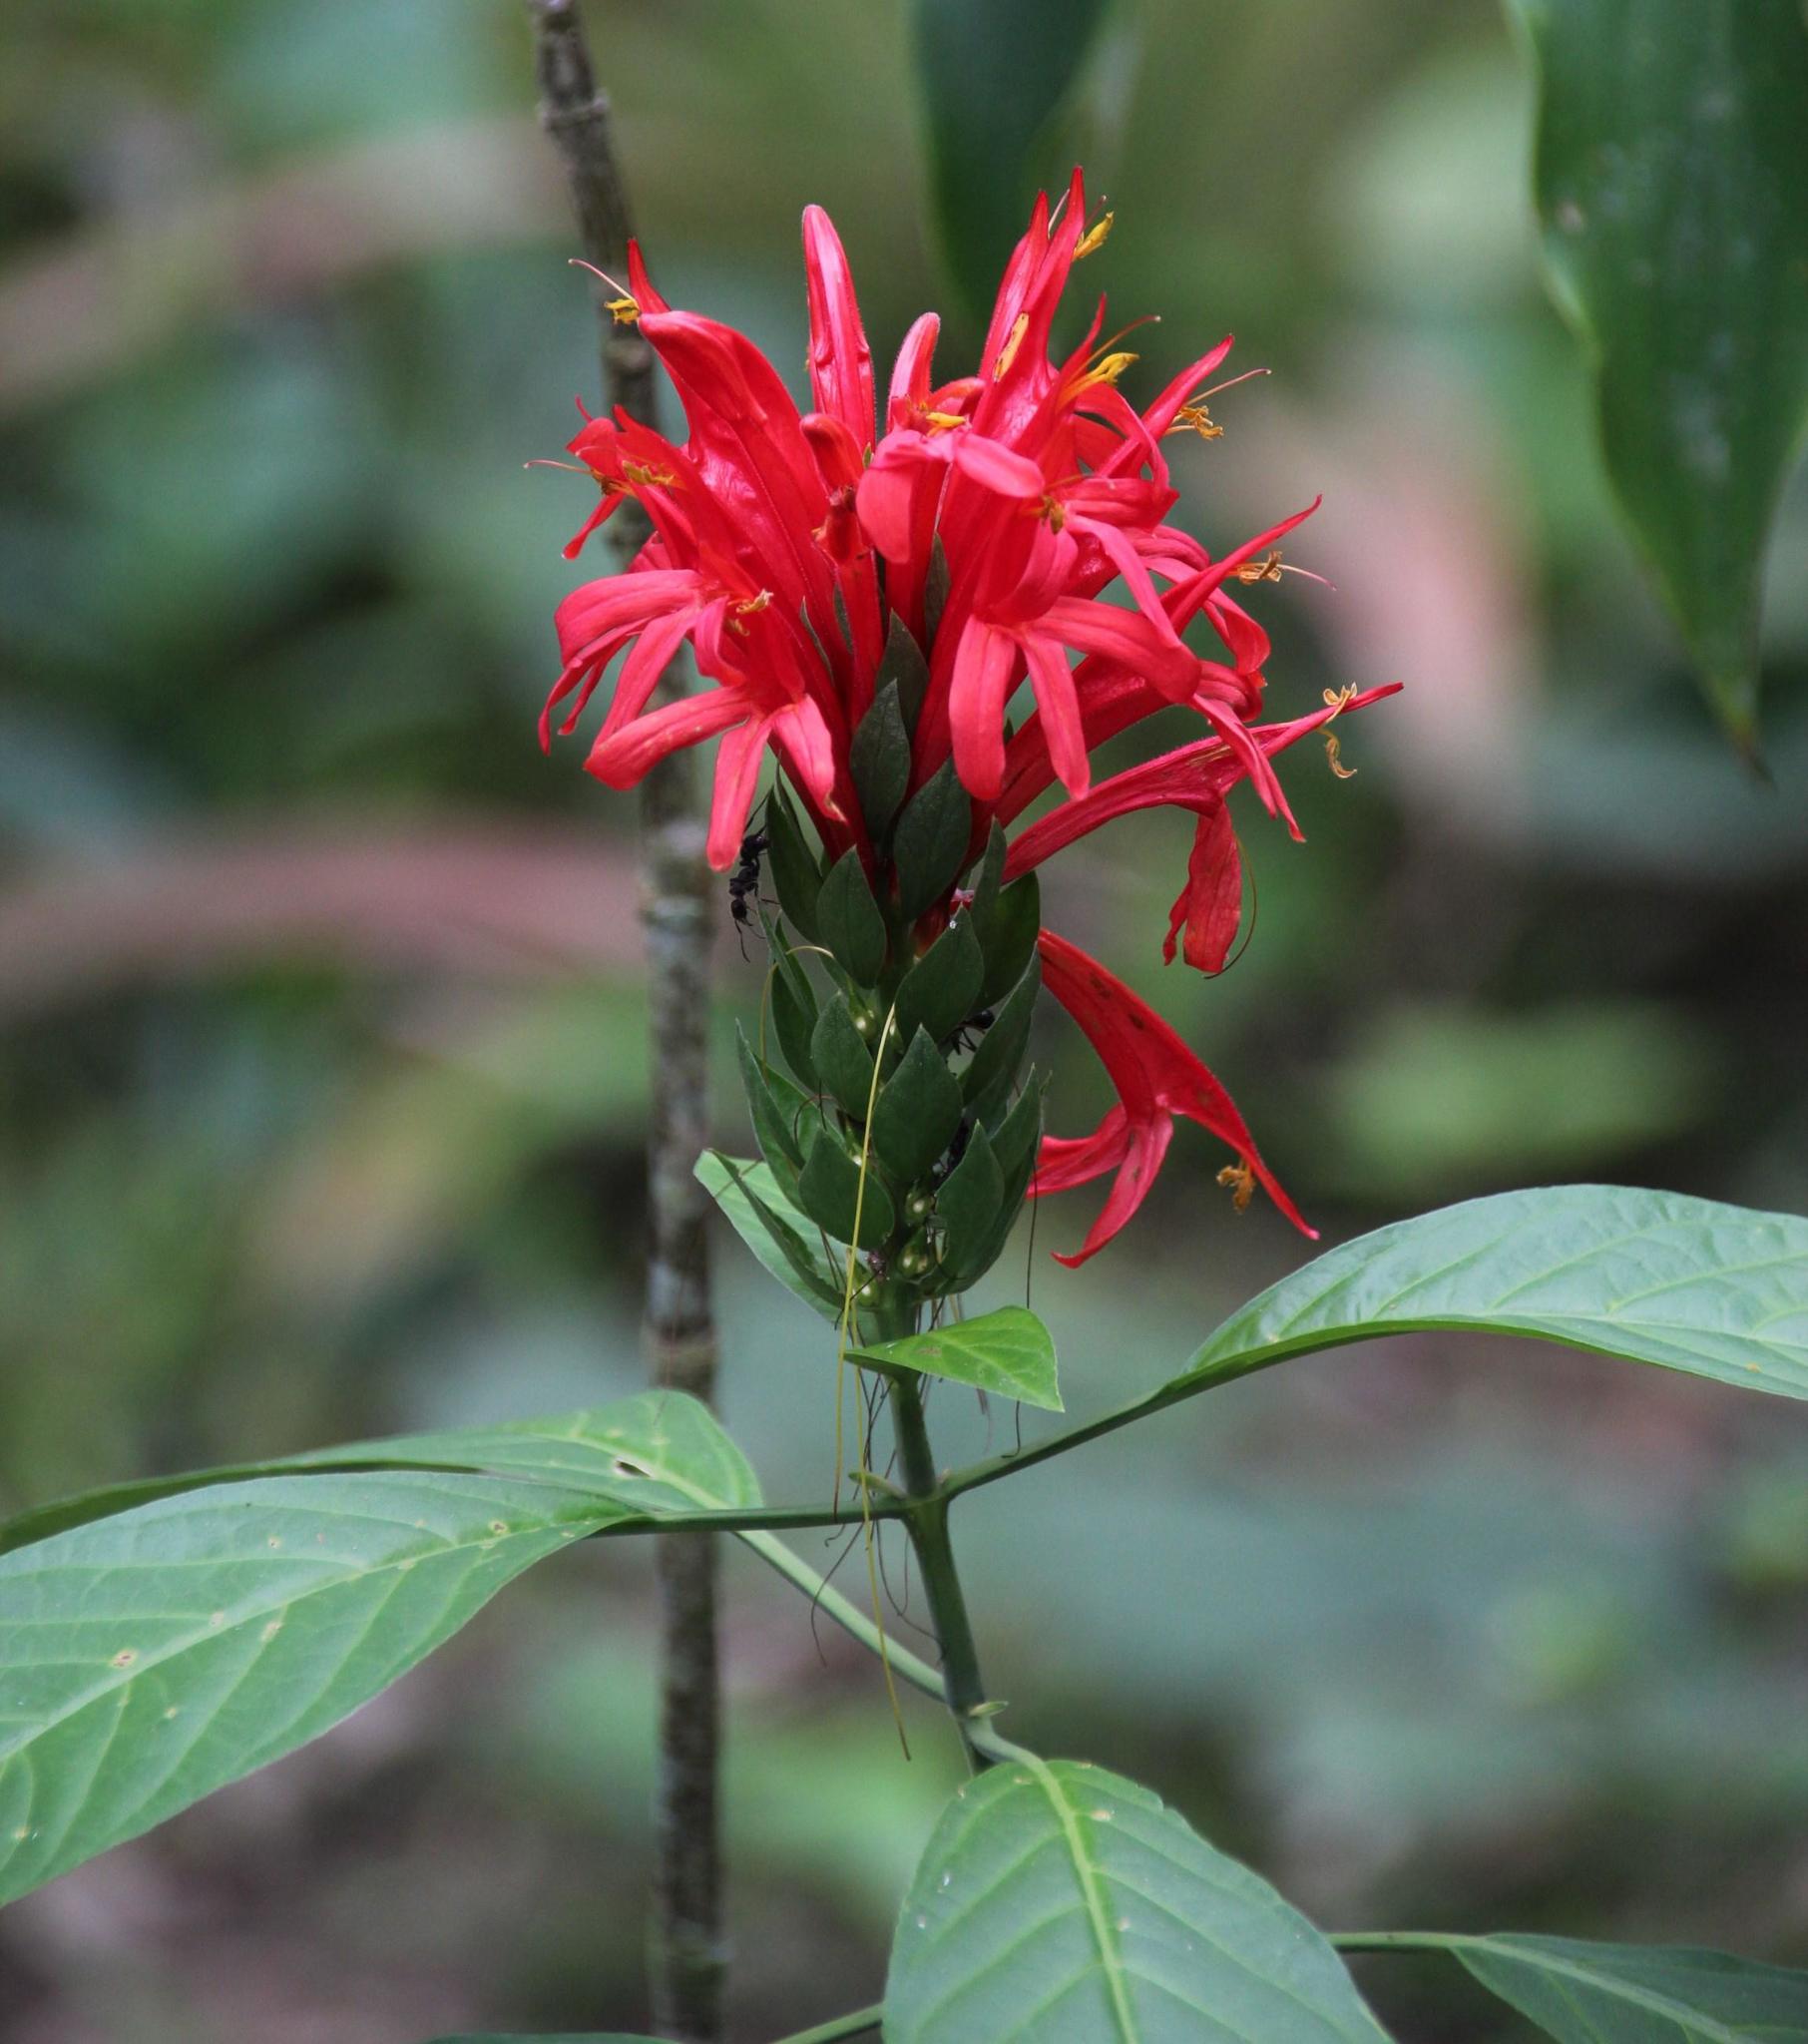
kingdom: Plantae
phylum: Tracheophyta
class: Magnoliopsida
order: Lamiales
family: Acanthaceae
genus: Pachystachys
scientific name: Pachystachys spicata
